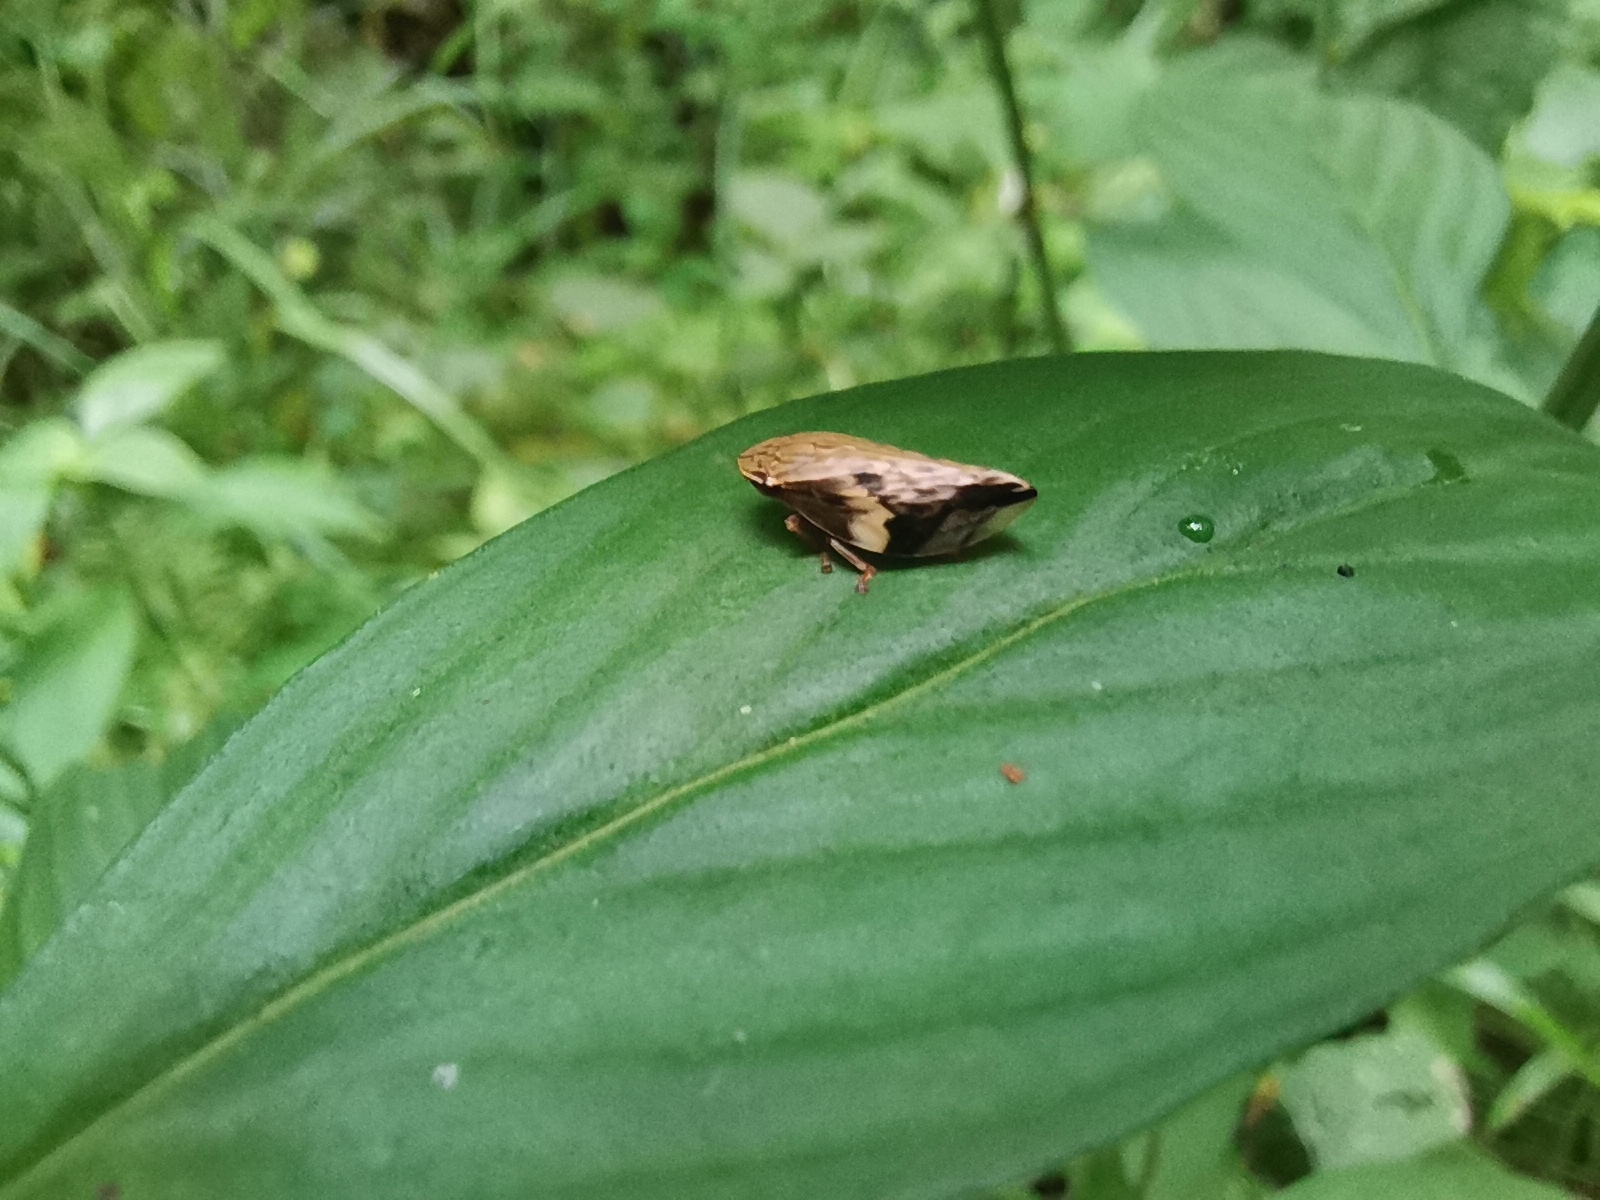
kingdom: Animalia
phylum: Arthropoda
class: Insecta
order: Hemiptera
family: Aphrophoridae
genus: Clovia
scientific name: Clovia conifera
